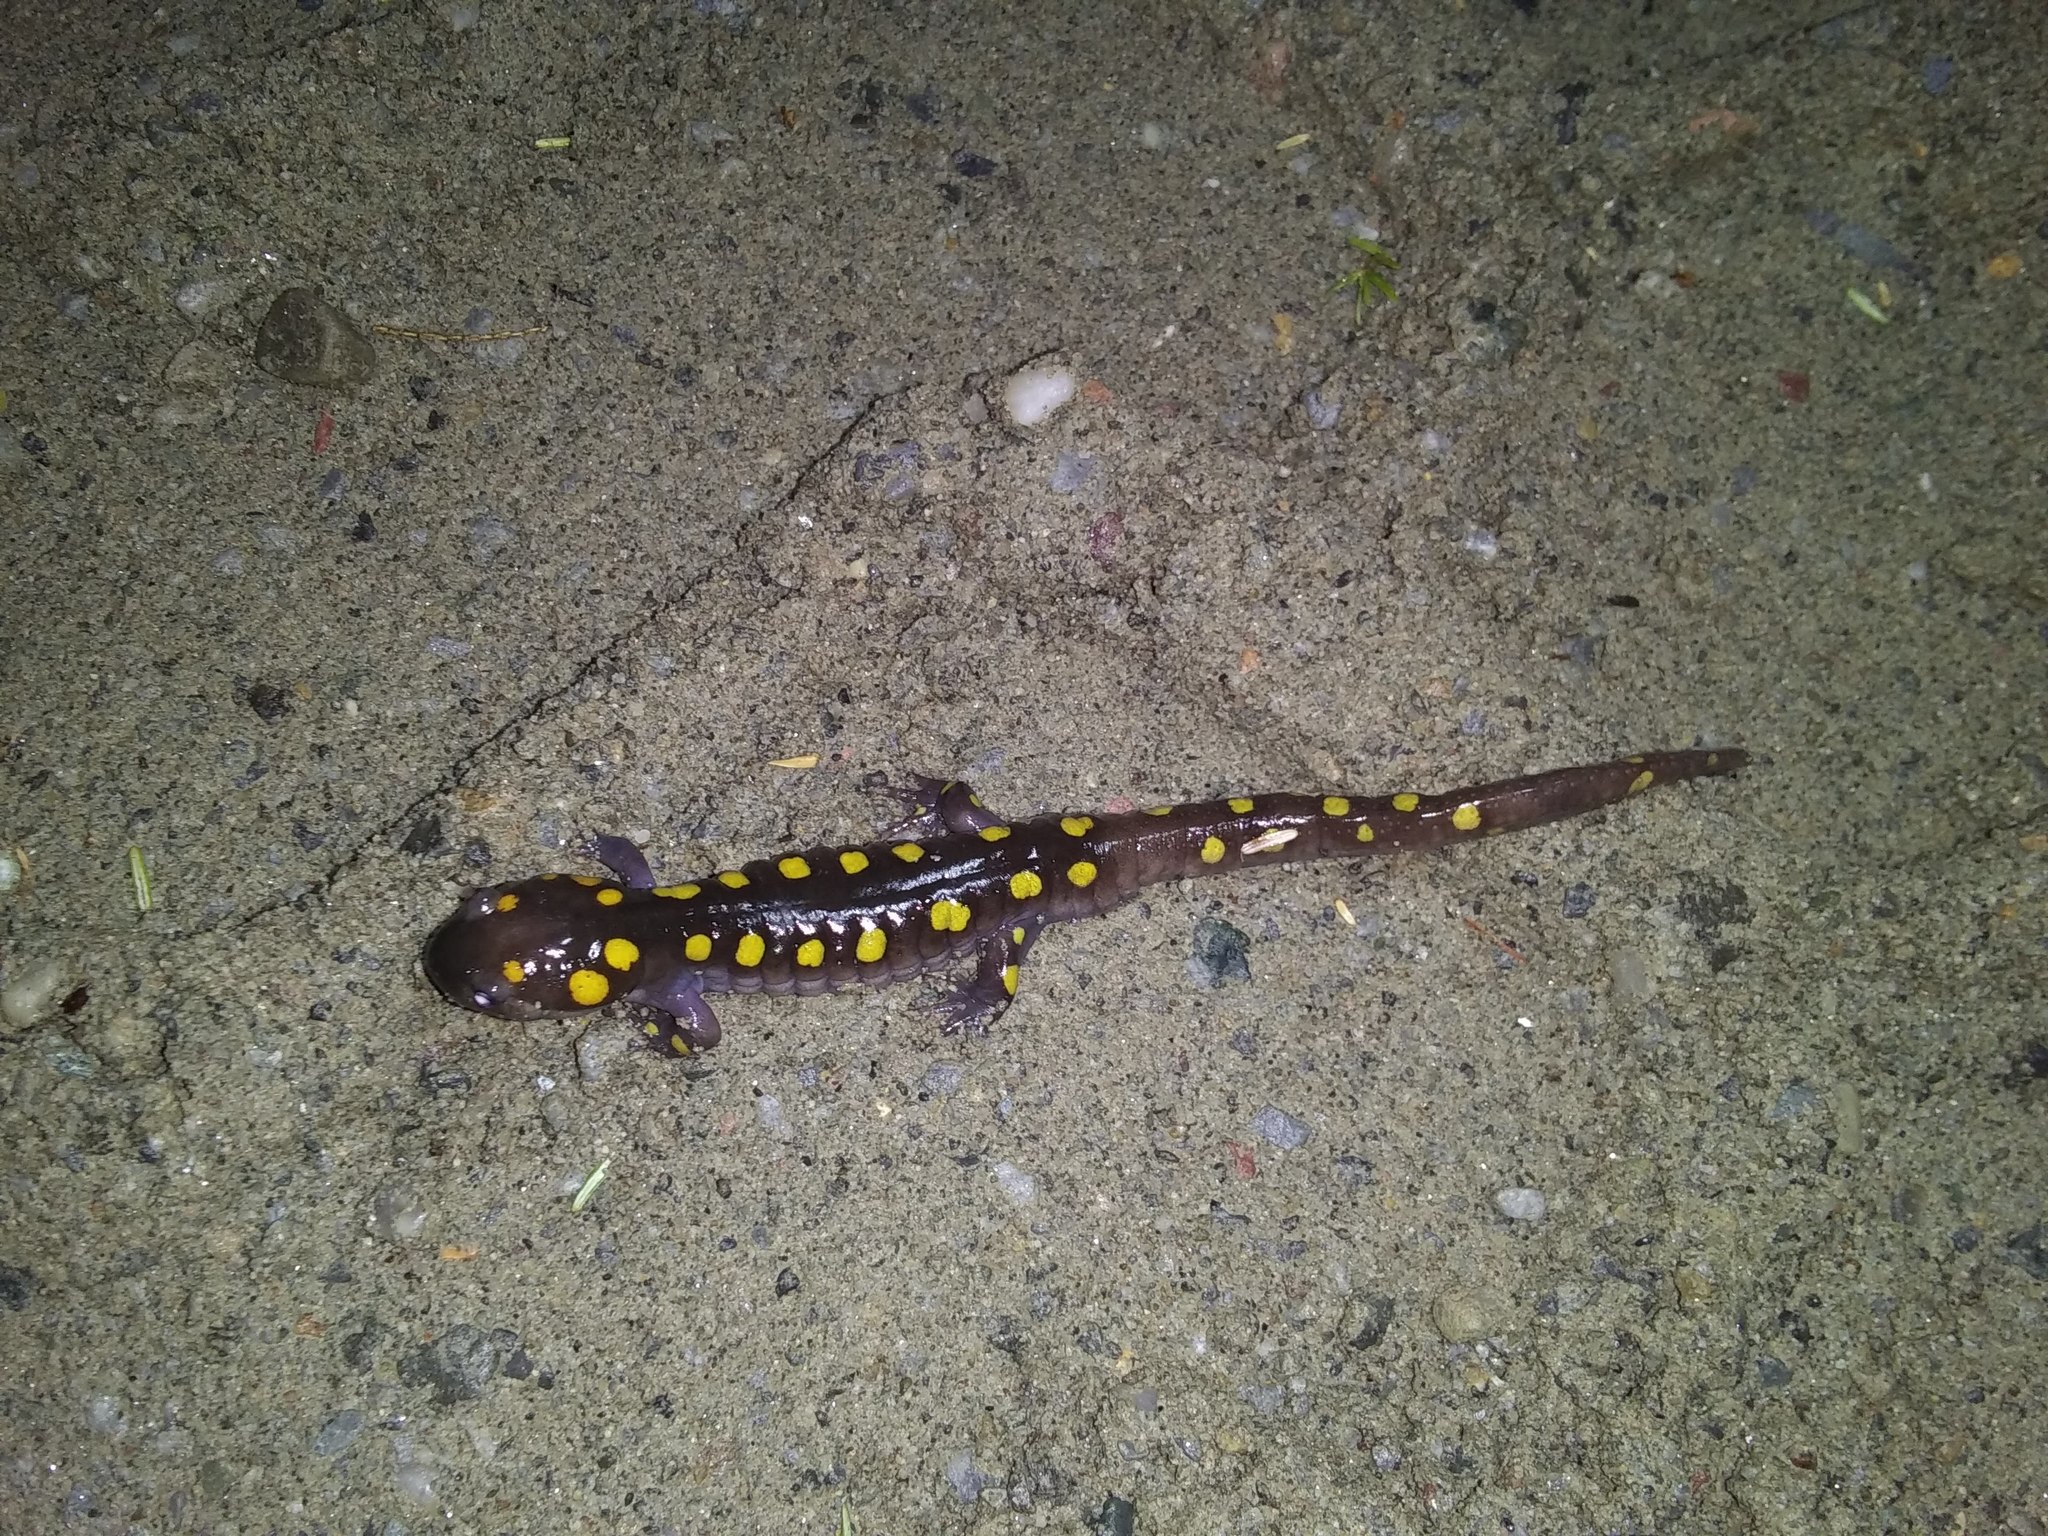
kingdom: Animalia
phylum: Chordata
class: Amphibia
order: Caudata
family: Ambystomatidae
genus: Ambystoma
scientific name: Ambystoma maculatum
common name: Spotted salamander
